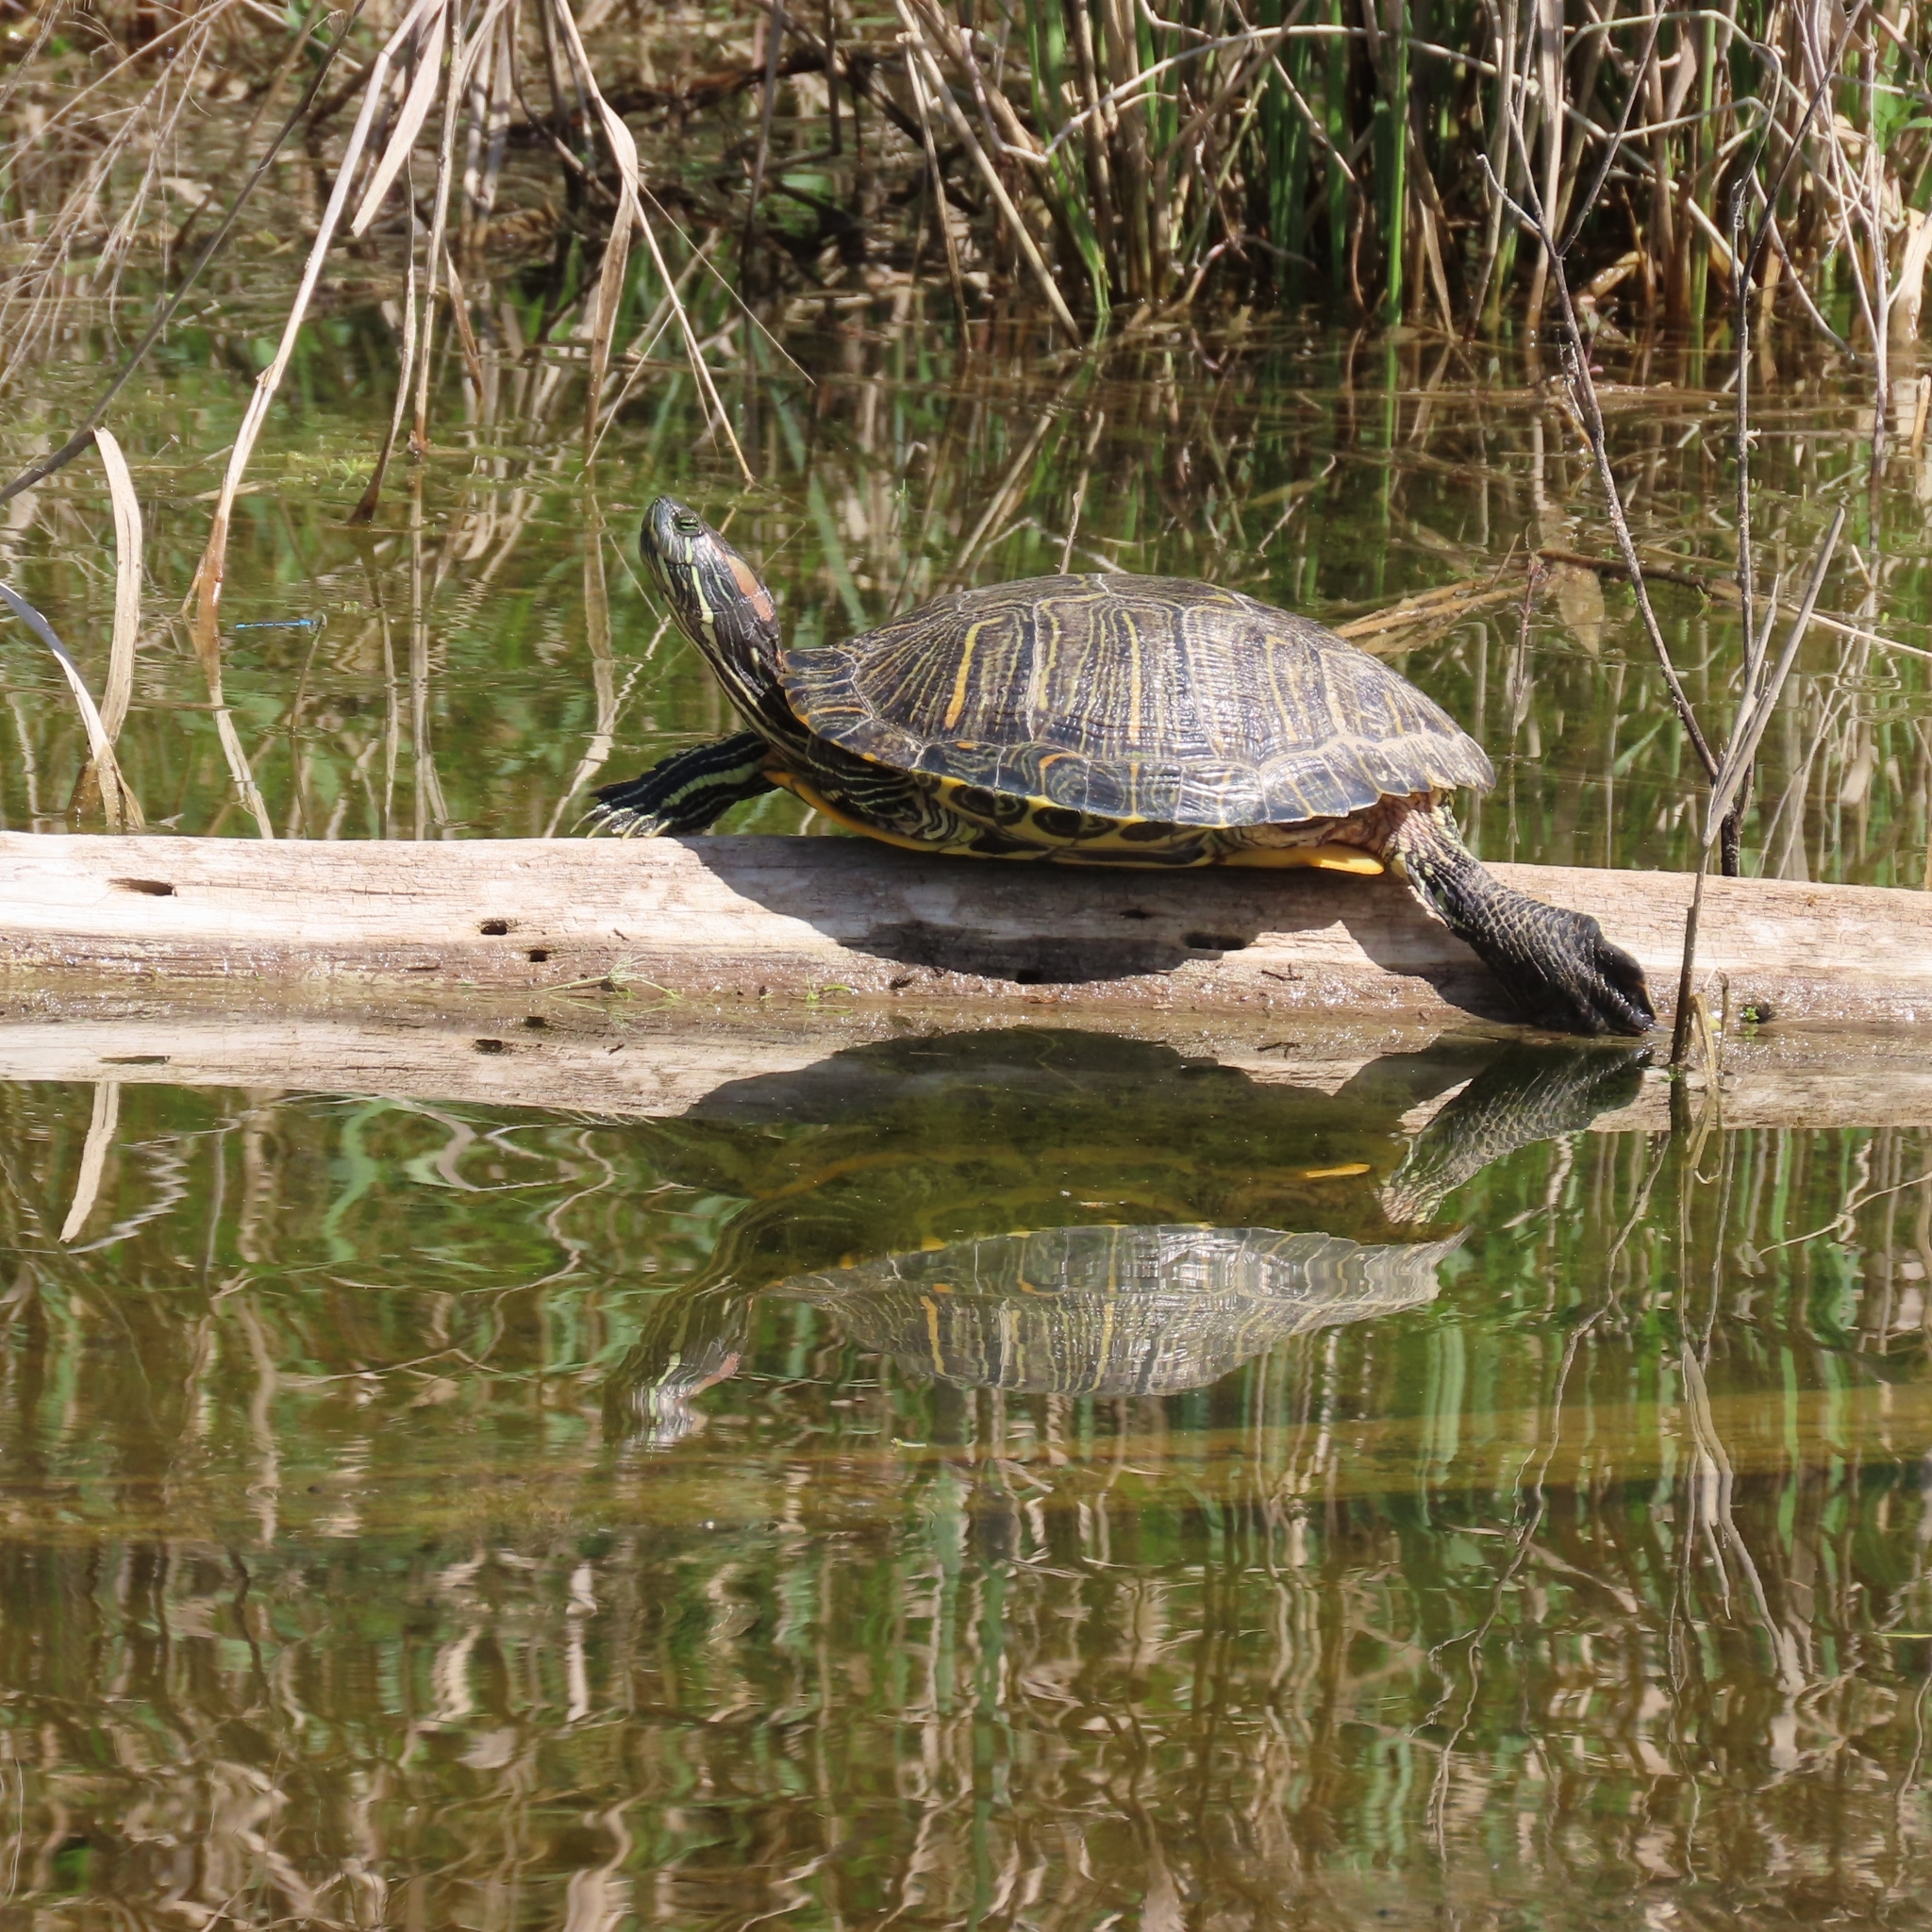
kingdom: Animalia
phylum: Chordata
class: Testudines
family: Emydidae
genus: Trachemys
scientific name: Trachemys scripta
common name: Slider
